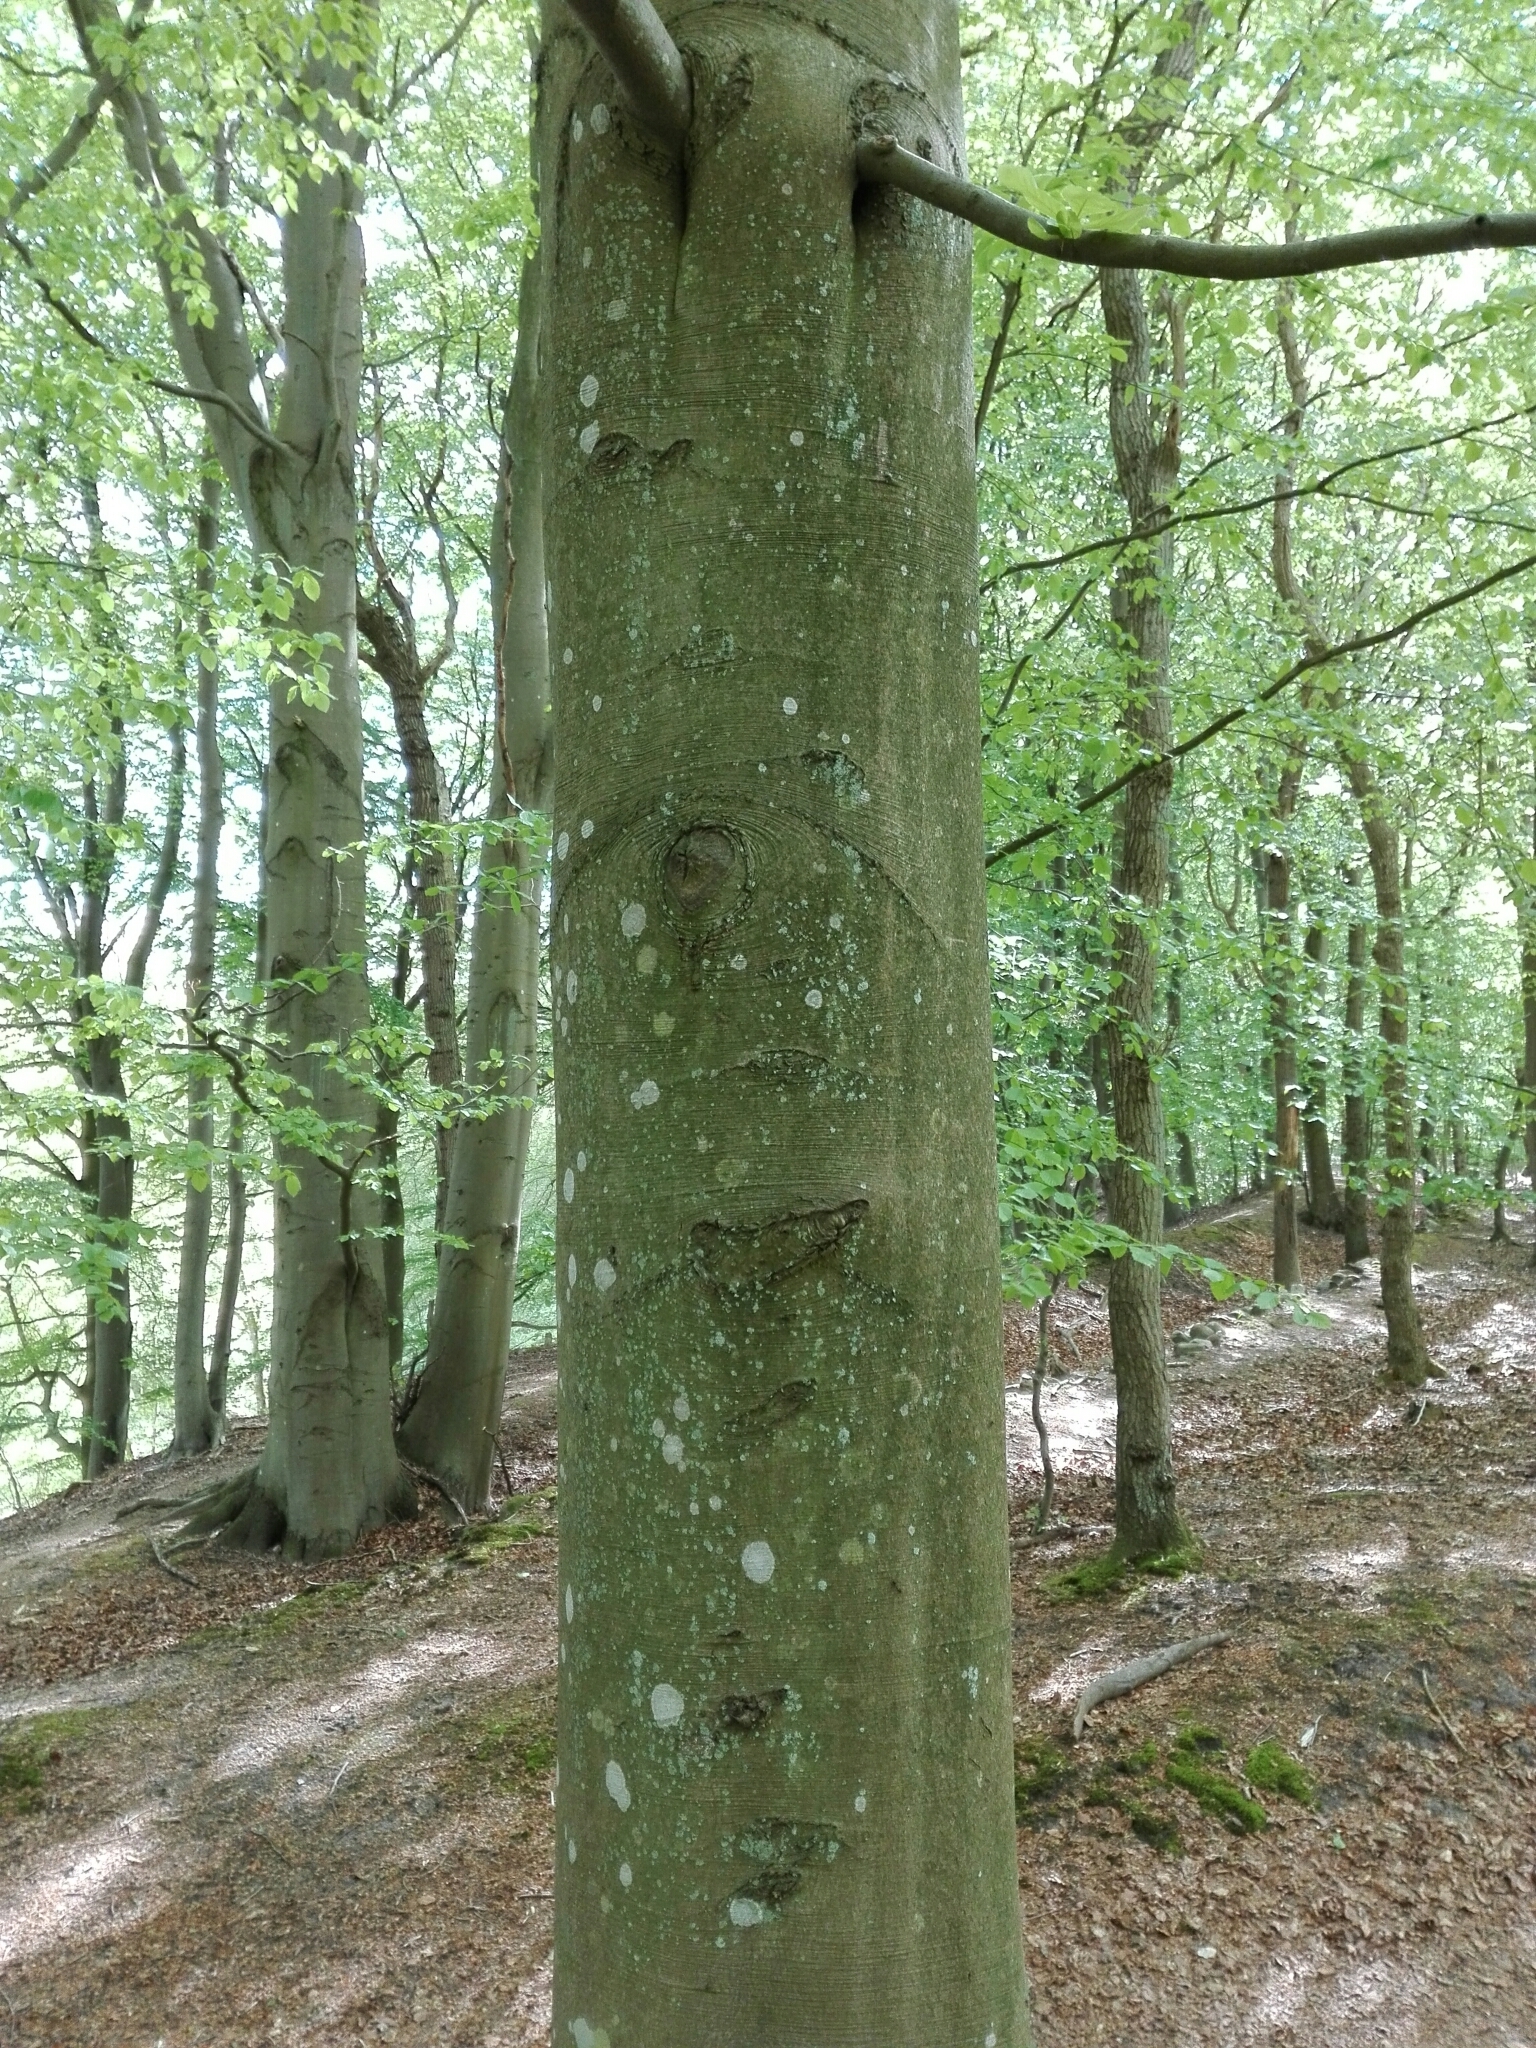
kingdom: Plantae
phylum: Tracheophyta
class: Magnoliopsida
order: Fagales
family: Fagaceae
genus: Fagus
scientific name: Fagus sylvatica
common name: Beech
